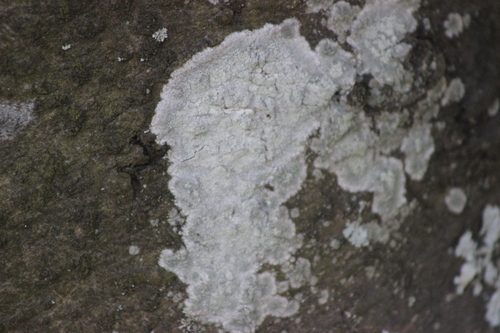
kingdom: Fungi
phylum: Basidiomycota
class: Agaricomycetes
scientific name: Agaricomycetes
